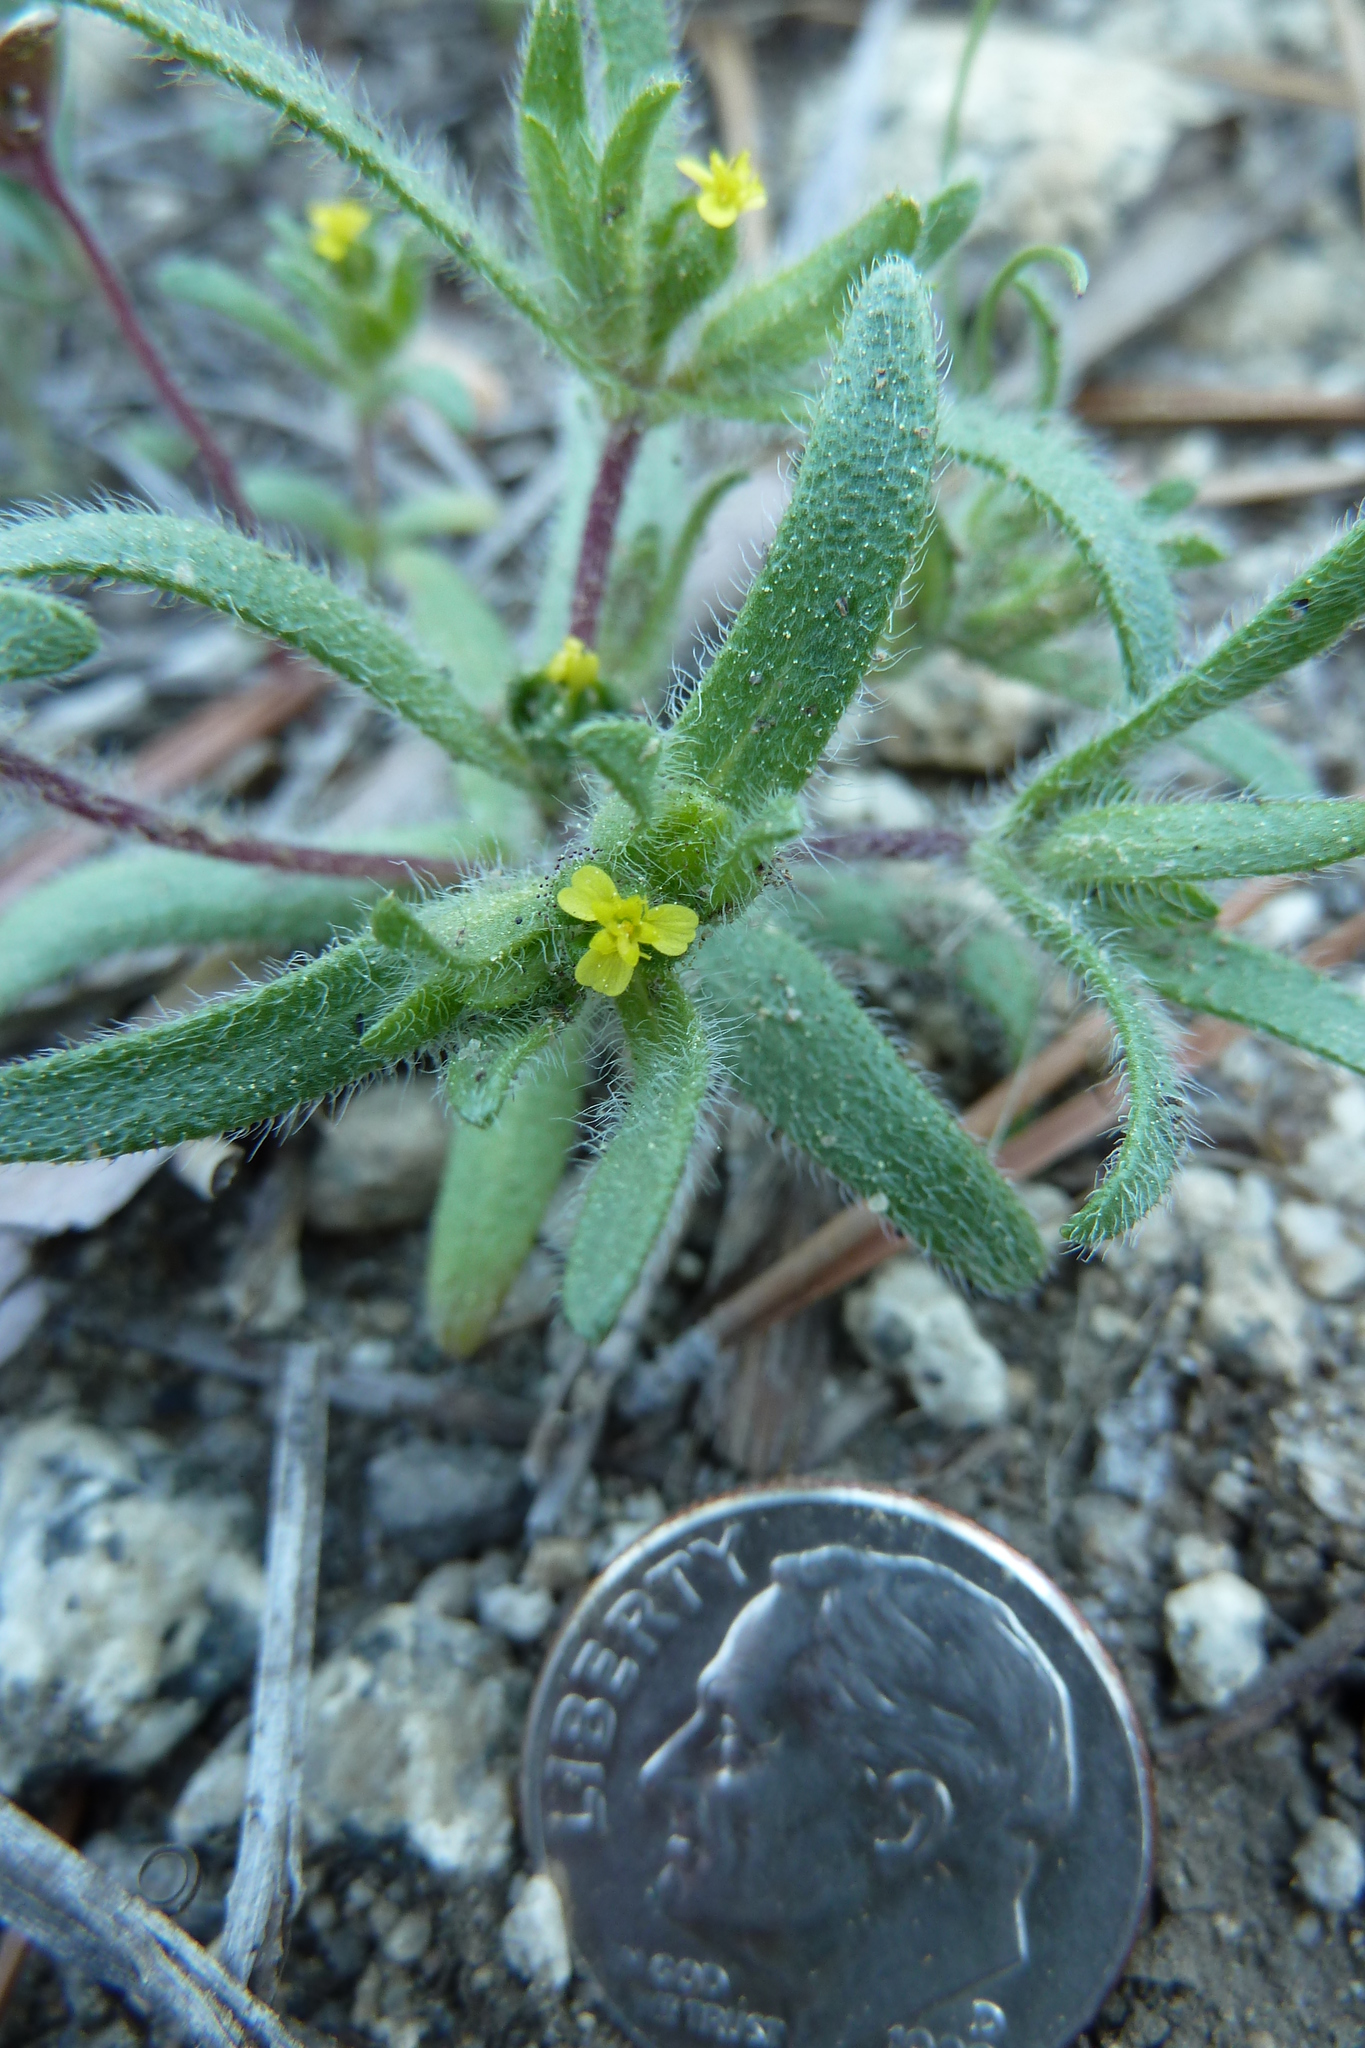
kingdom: Plantae
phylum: Tracheophyta
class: Magnoliopsida
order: Asterales
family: Asteraceae
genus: Hemizonella
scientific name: Hemizonella minima
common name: Opposite-leaved tarweed
